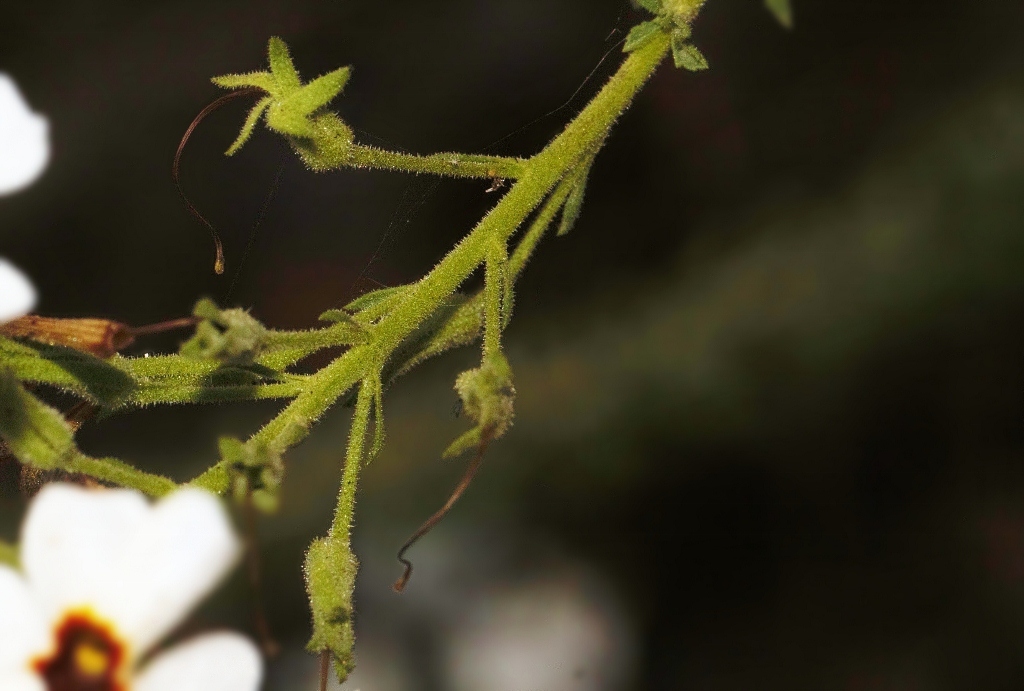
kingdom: Plantae
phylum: Tracheophyta
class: Magnoliopsida
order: Lamiales
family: Scrophulariaceae
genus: Jamesbrittenia
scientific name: Jamesbrittenia albobadia
